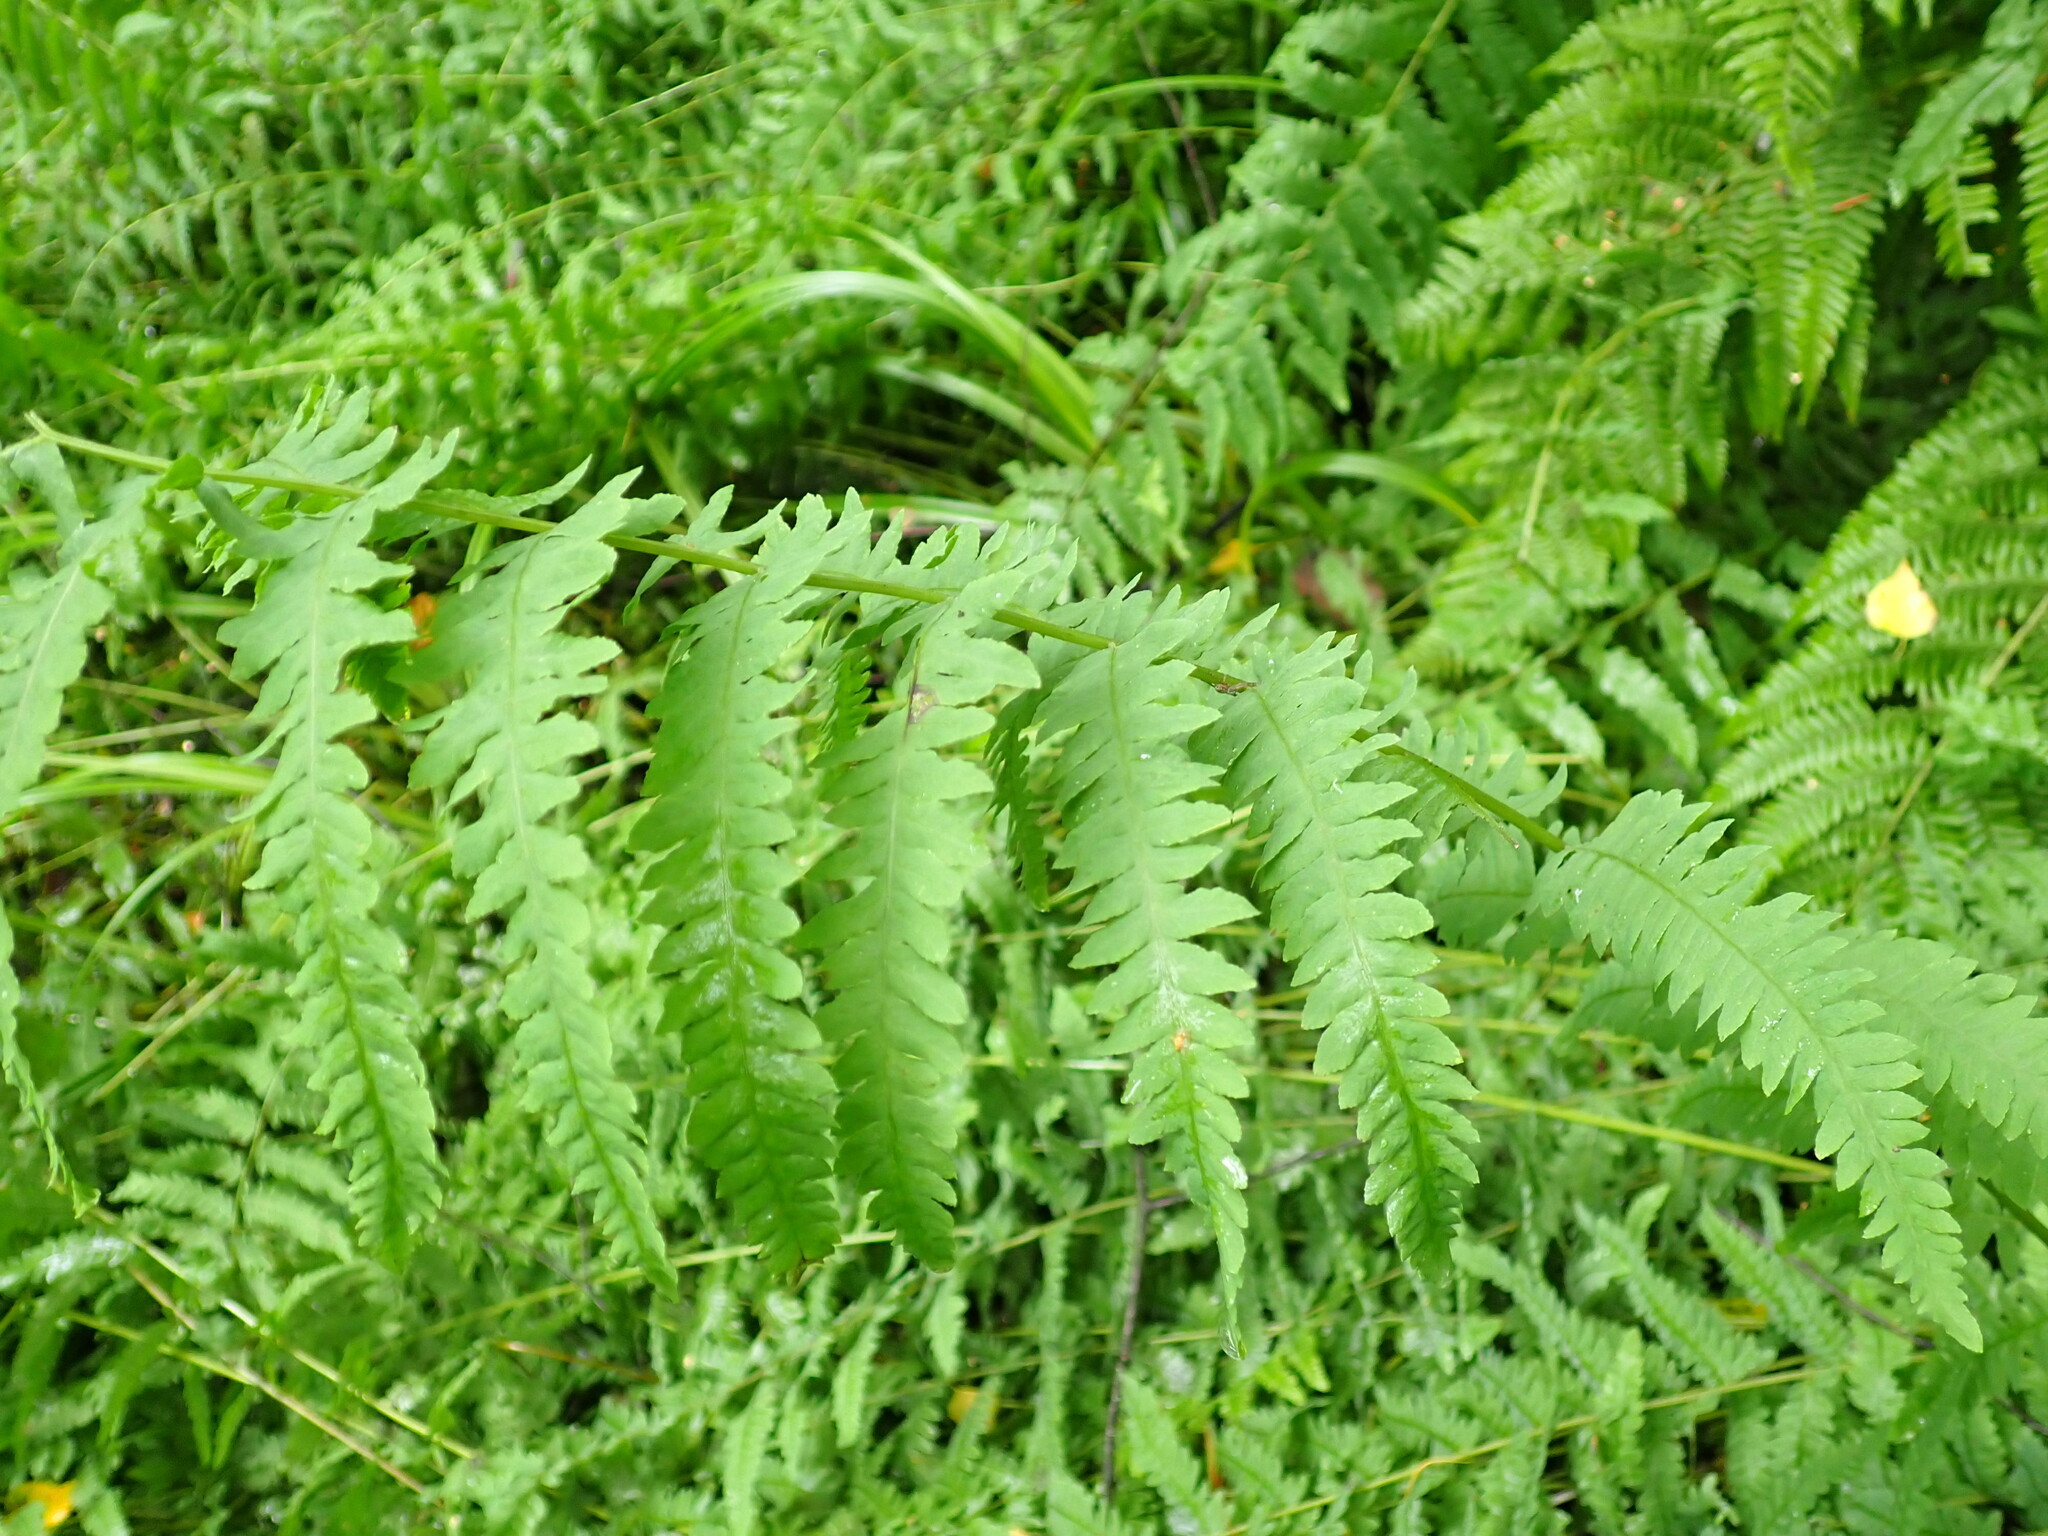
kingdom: Plantae
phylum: Tracheophyta
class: Polypodiopsida
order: Polypodiales
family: Thelypteridaceae
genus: Thelypteris
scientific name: Thelypteris palustris
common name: Marsh fern
